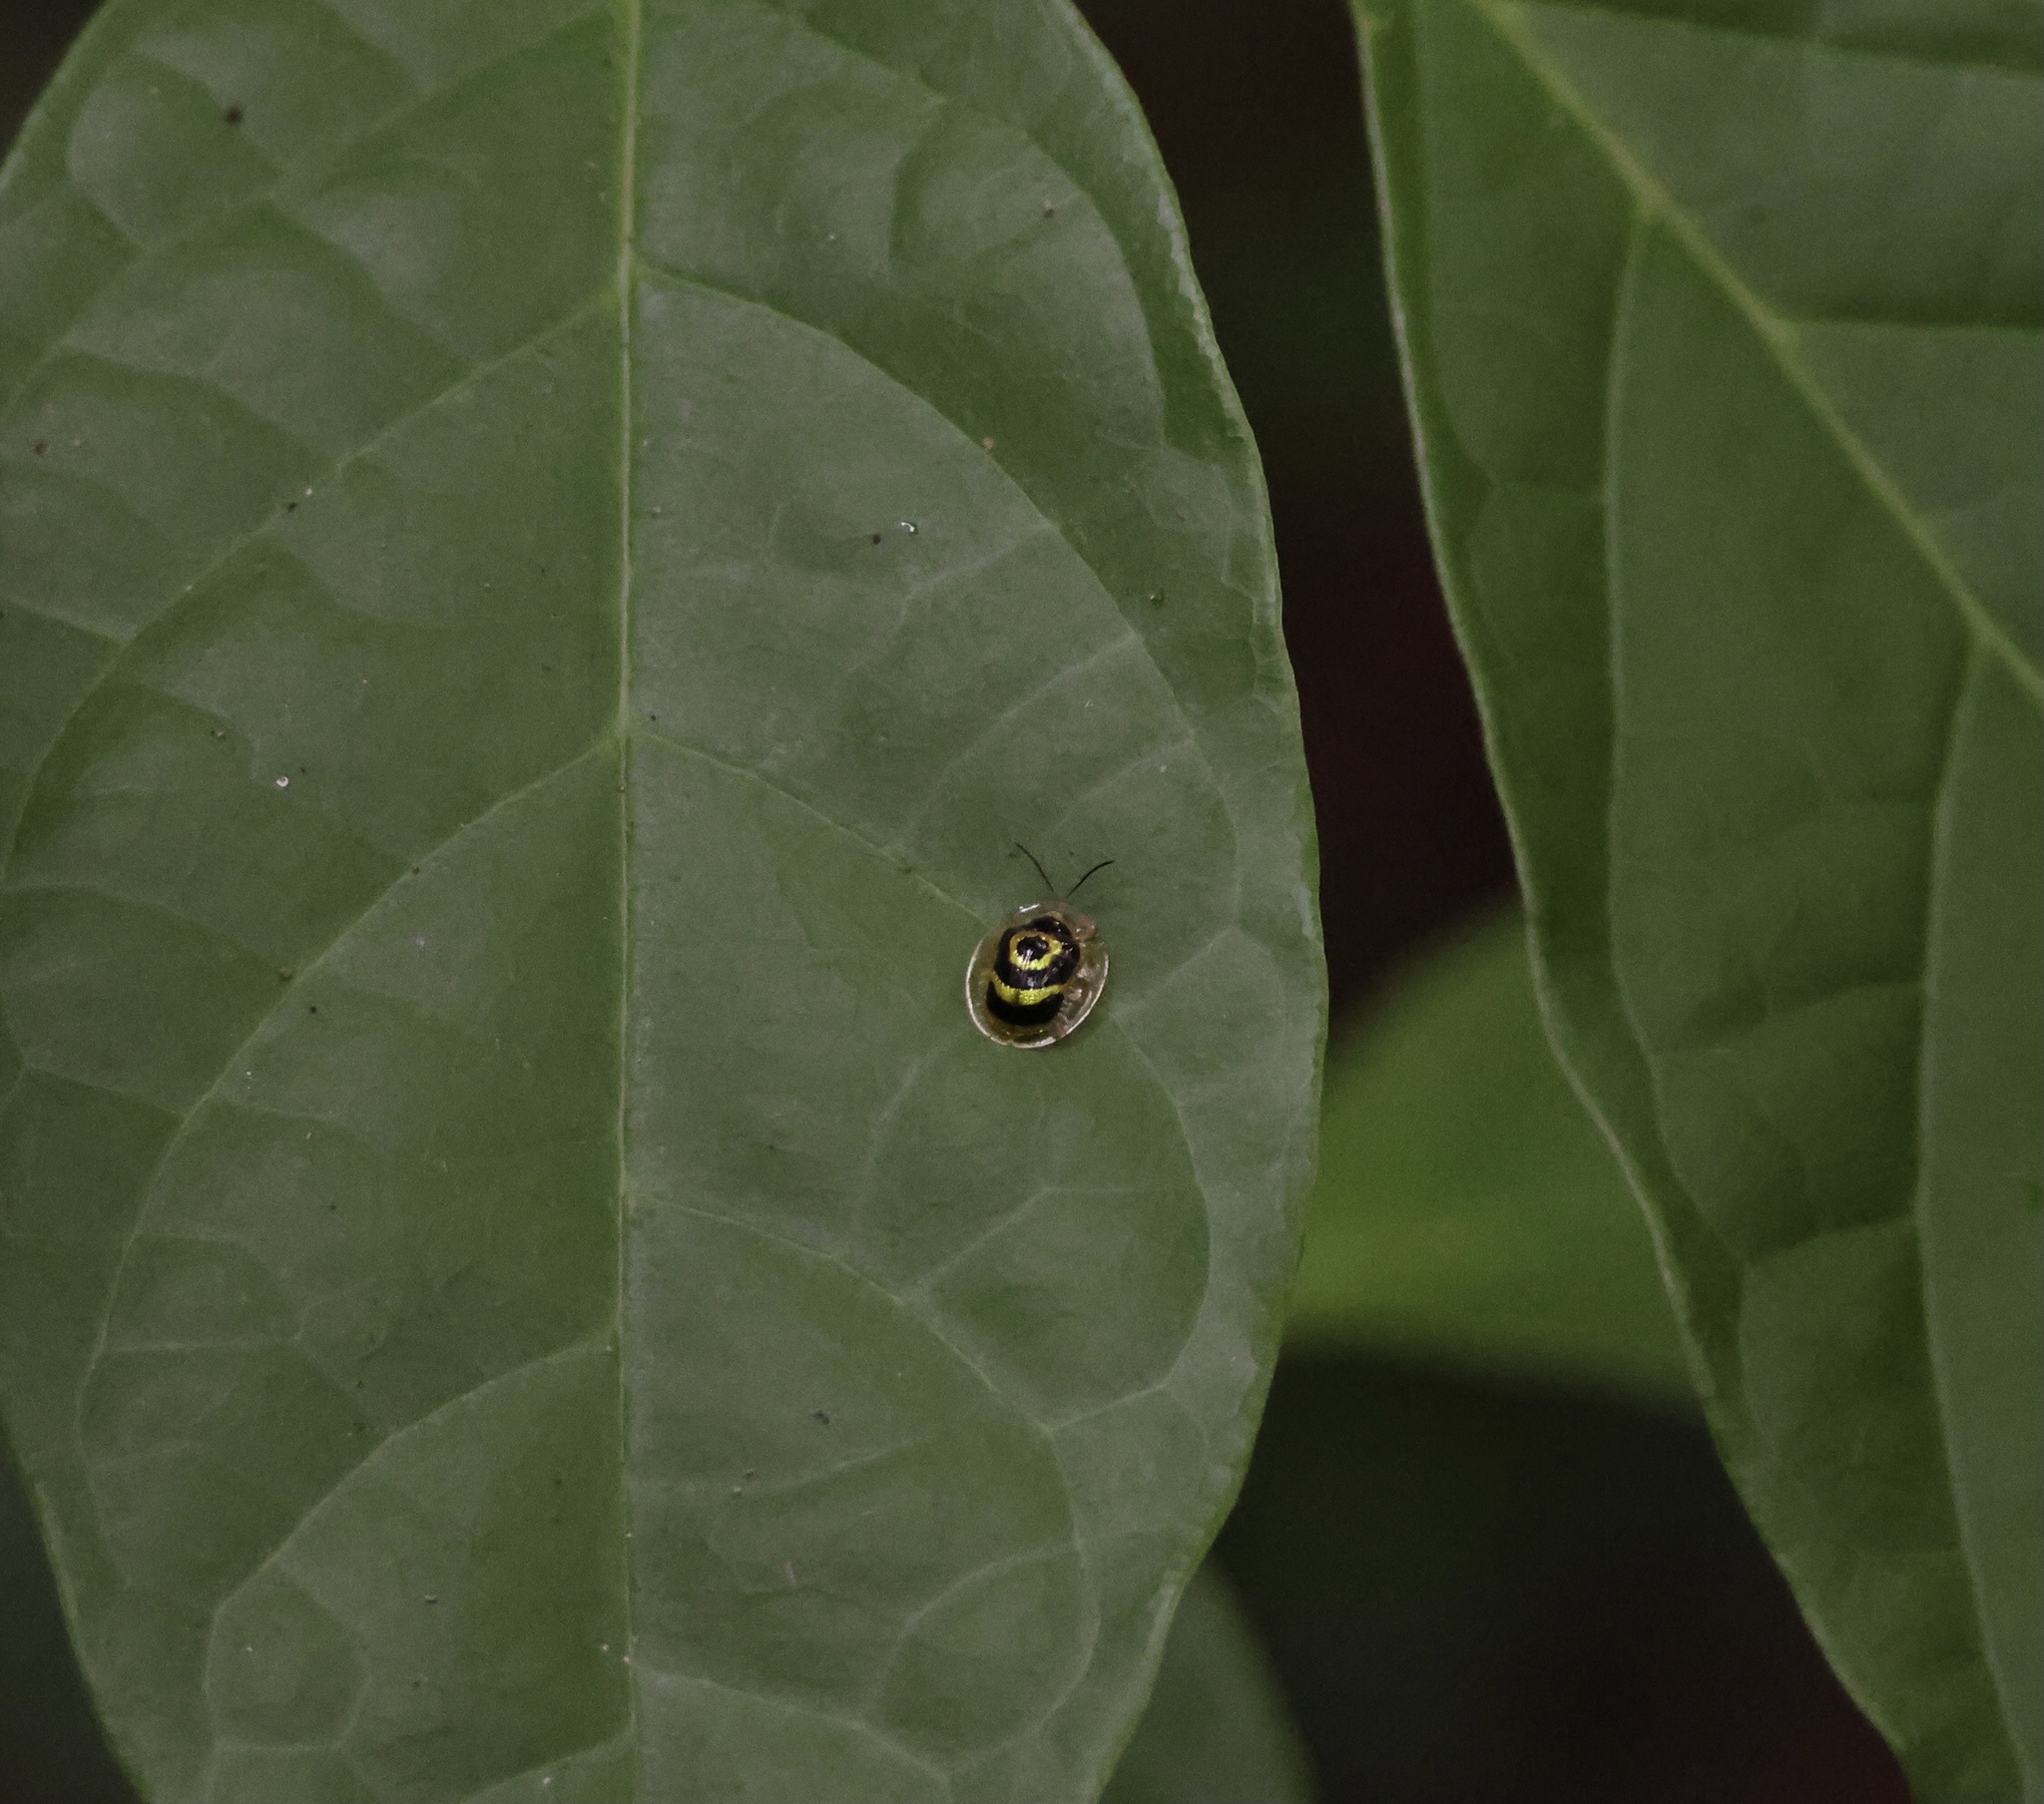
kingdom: Animalia
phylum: Arthropoda
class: Insecta
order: Coleoptera
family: Chrysomelidae
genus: Ischnocodia
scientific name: Ischnocodia annulus
